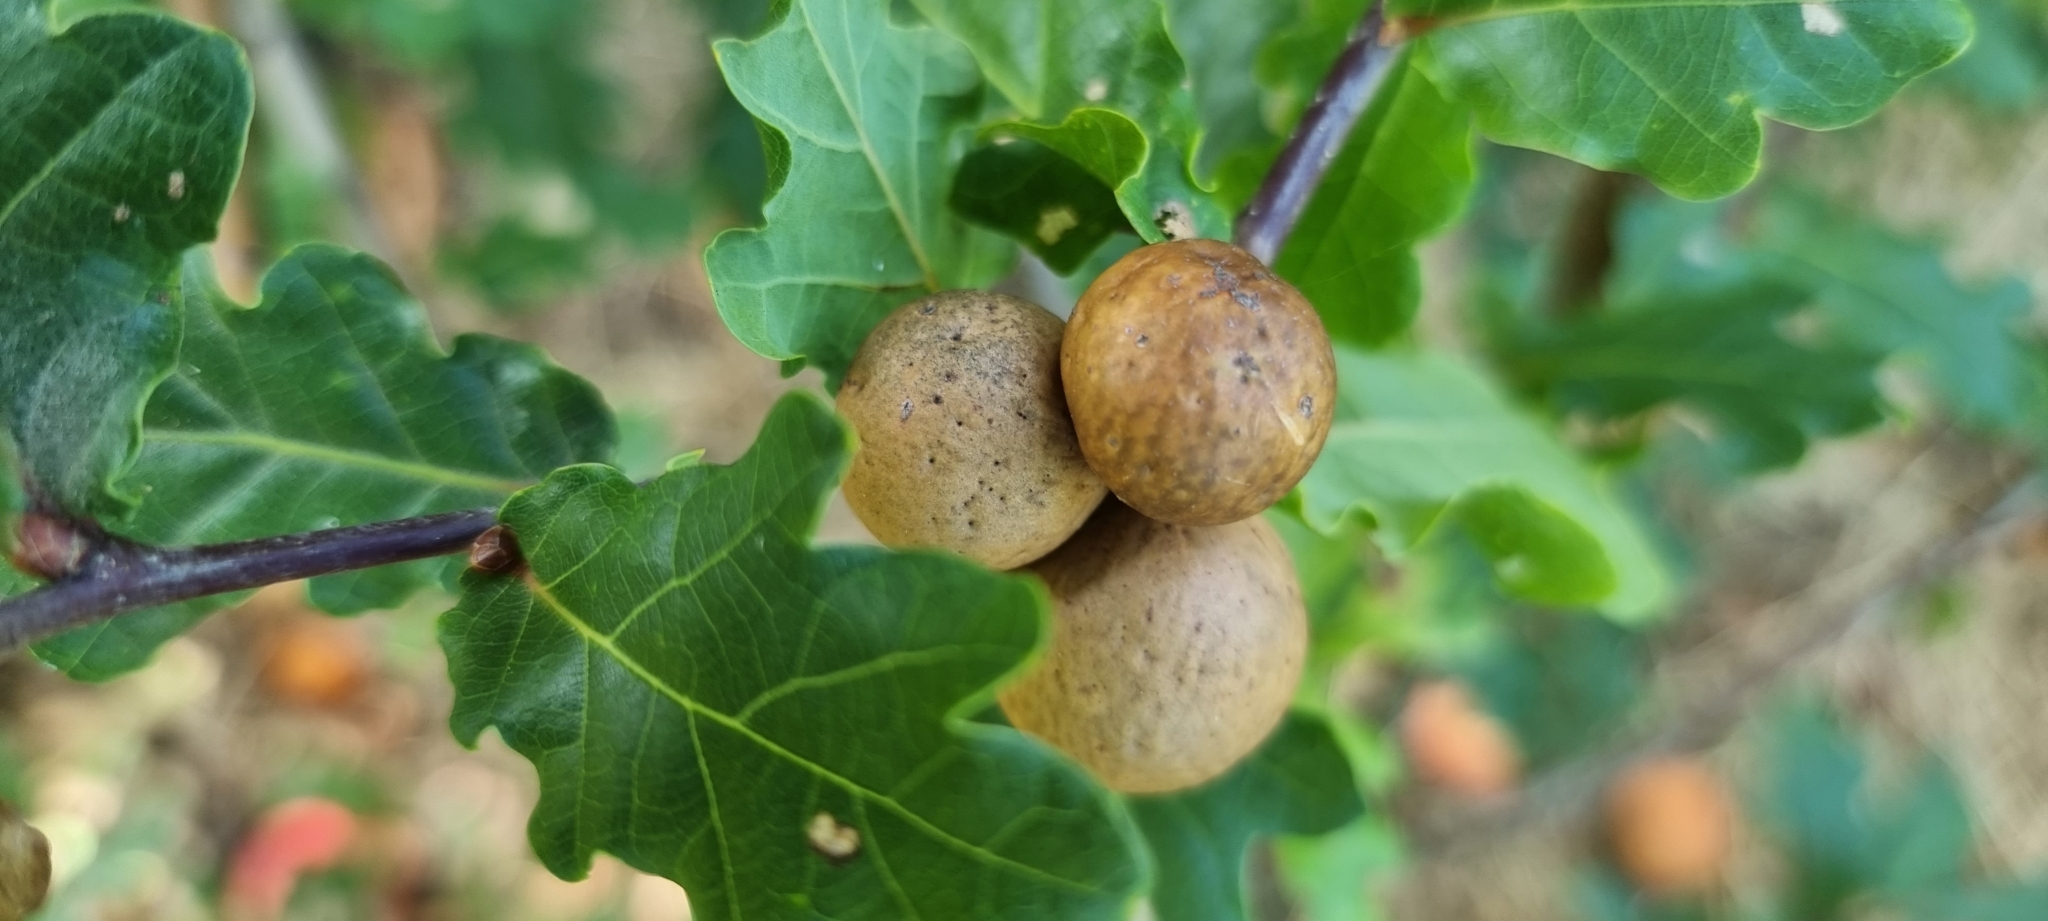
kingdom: Animalia
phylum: Arthropoda
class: Insecta
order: Hymenoptera
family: Cynipidae
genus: Andricus
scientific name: Andricus kollari
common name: Marble gall
